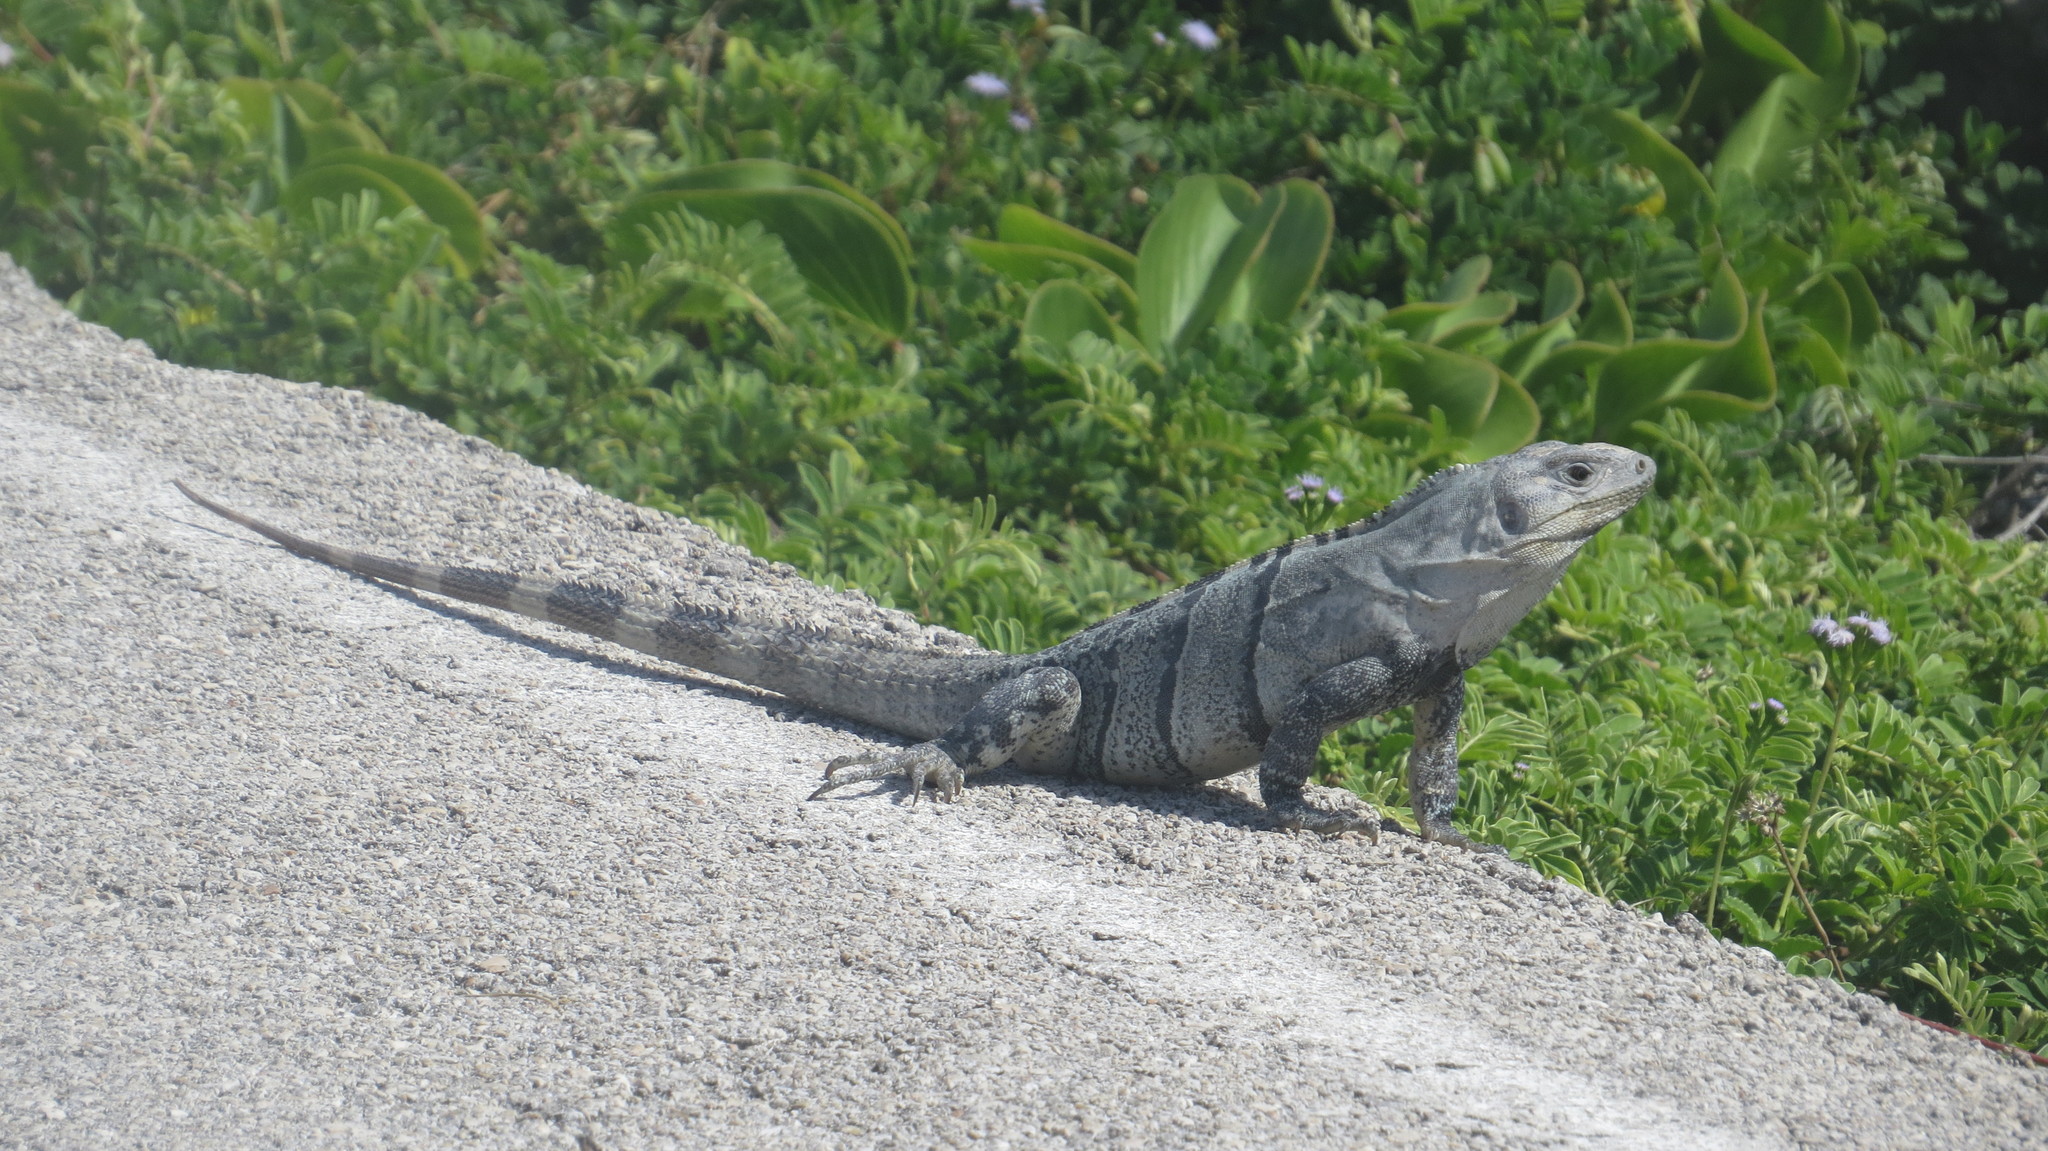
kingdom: Animalia
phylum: Chordata
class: Squamata
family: Iguanidae
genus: Ctenosaura
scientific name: Ctenosaura similis
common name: Black spiny-tailed iguana
